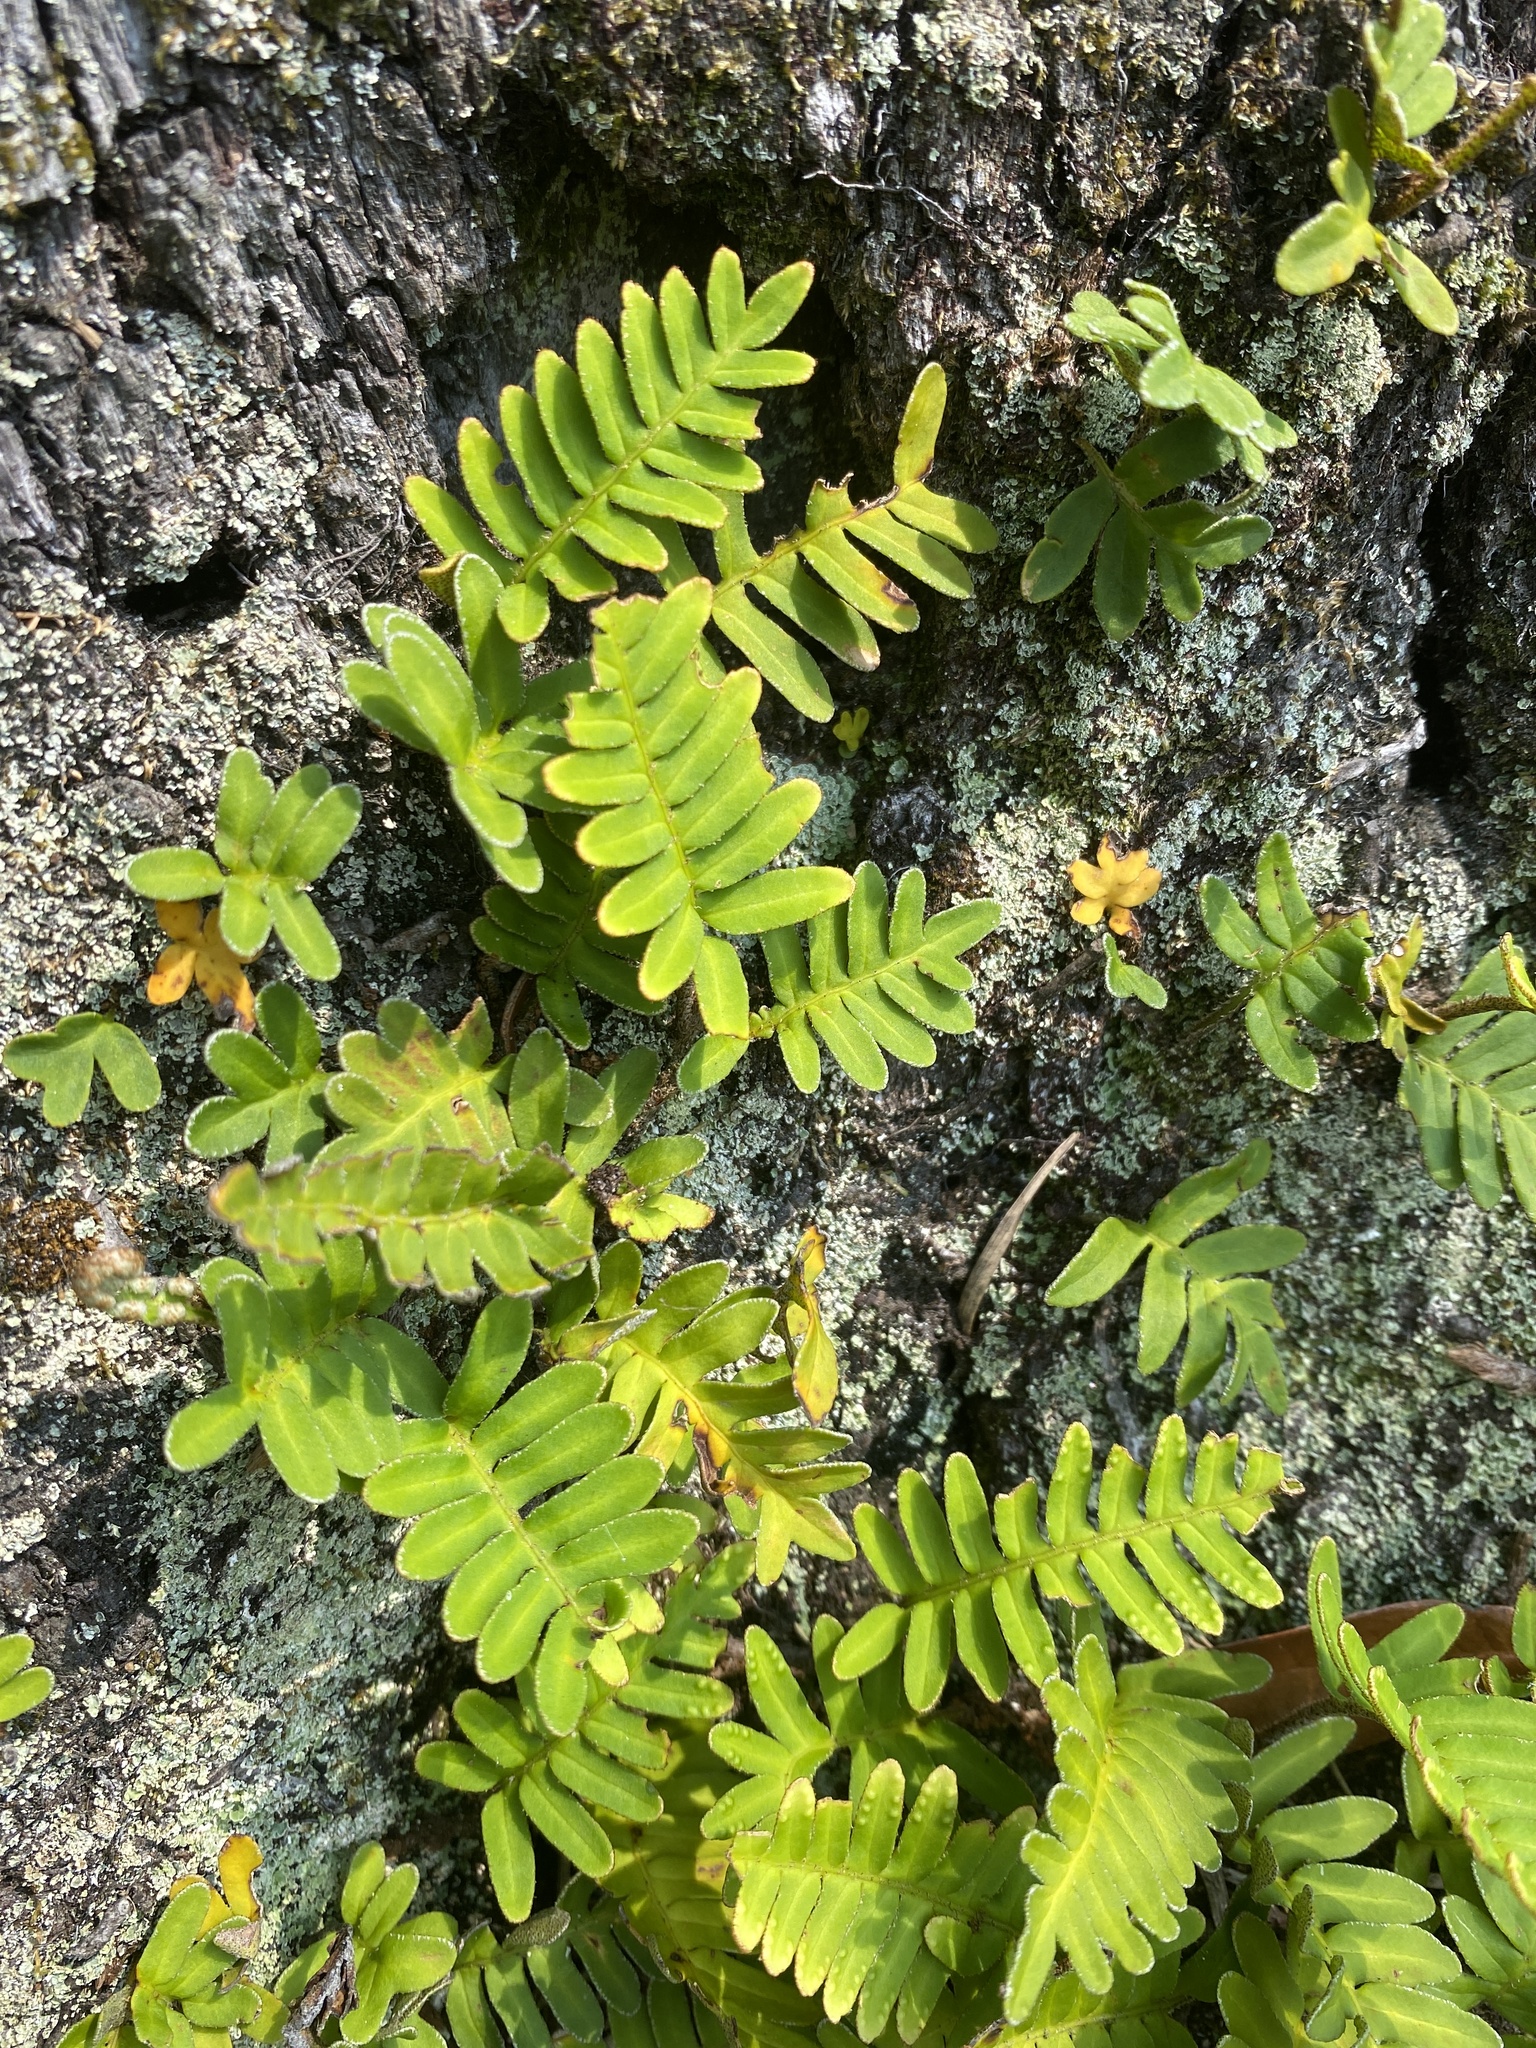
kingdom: Plantae
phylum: Tracheophyta
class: Polypodiopsida
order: Polypodiales
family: Polypodiaceae
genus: Pleopeltis
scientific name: Pleopeltis michauxiana
